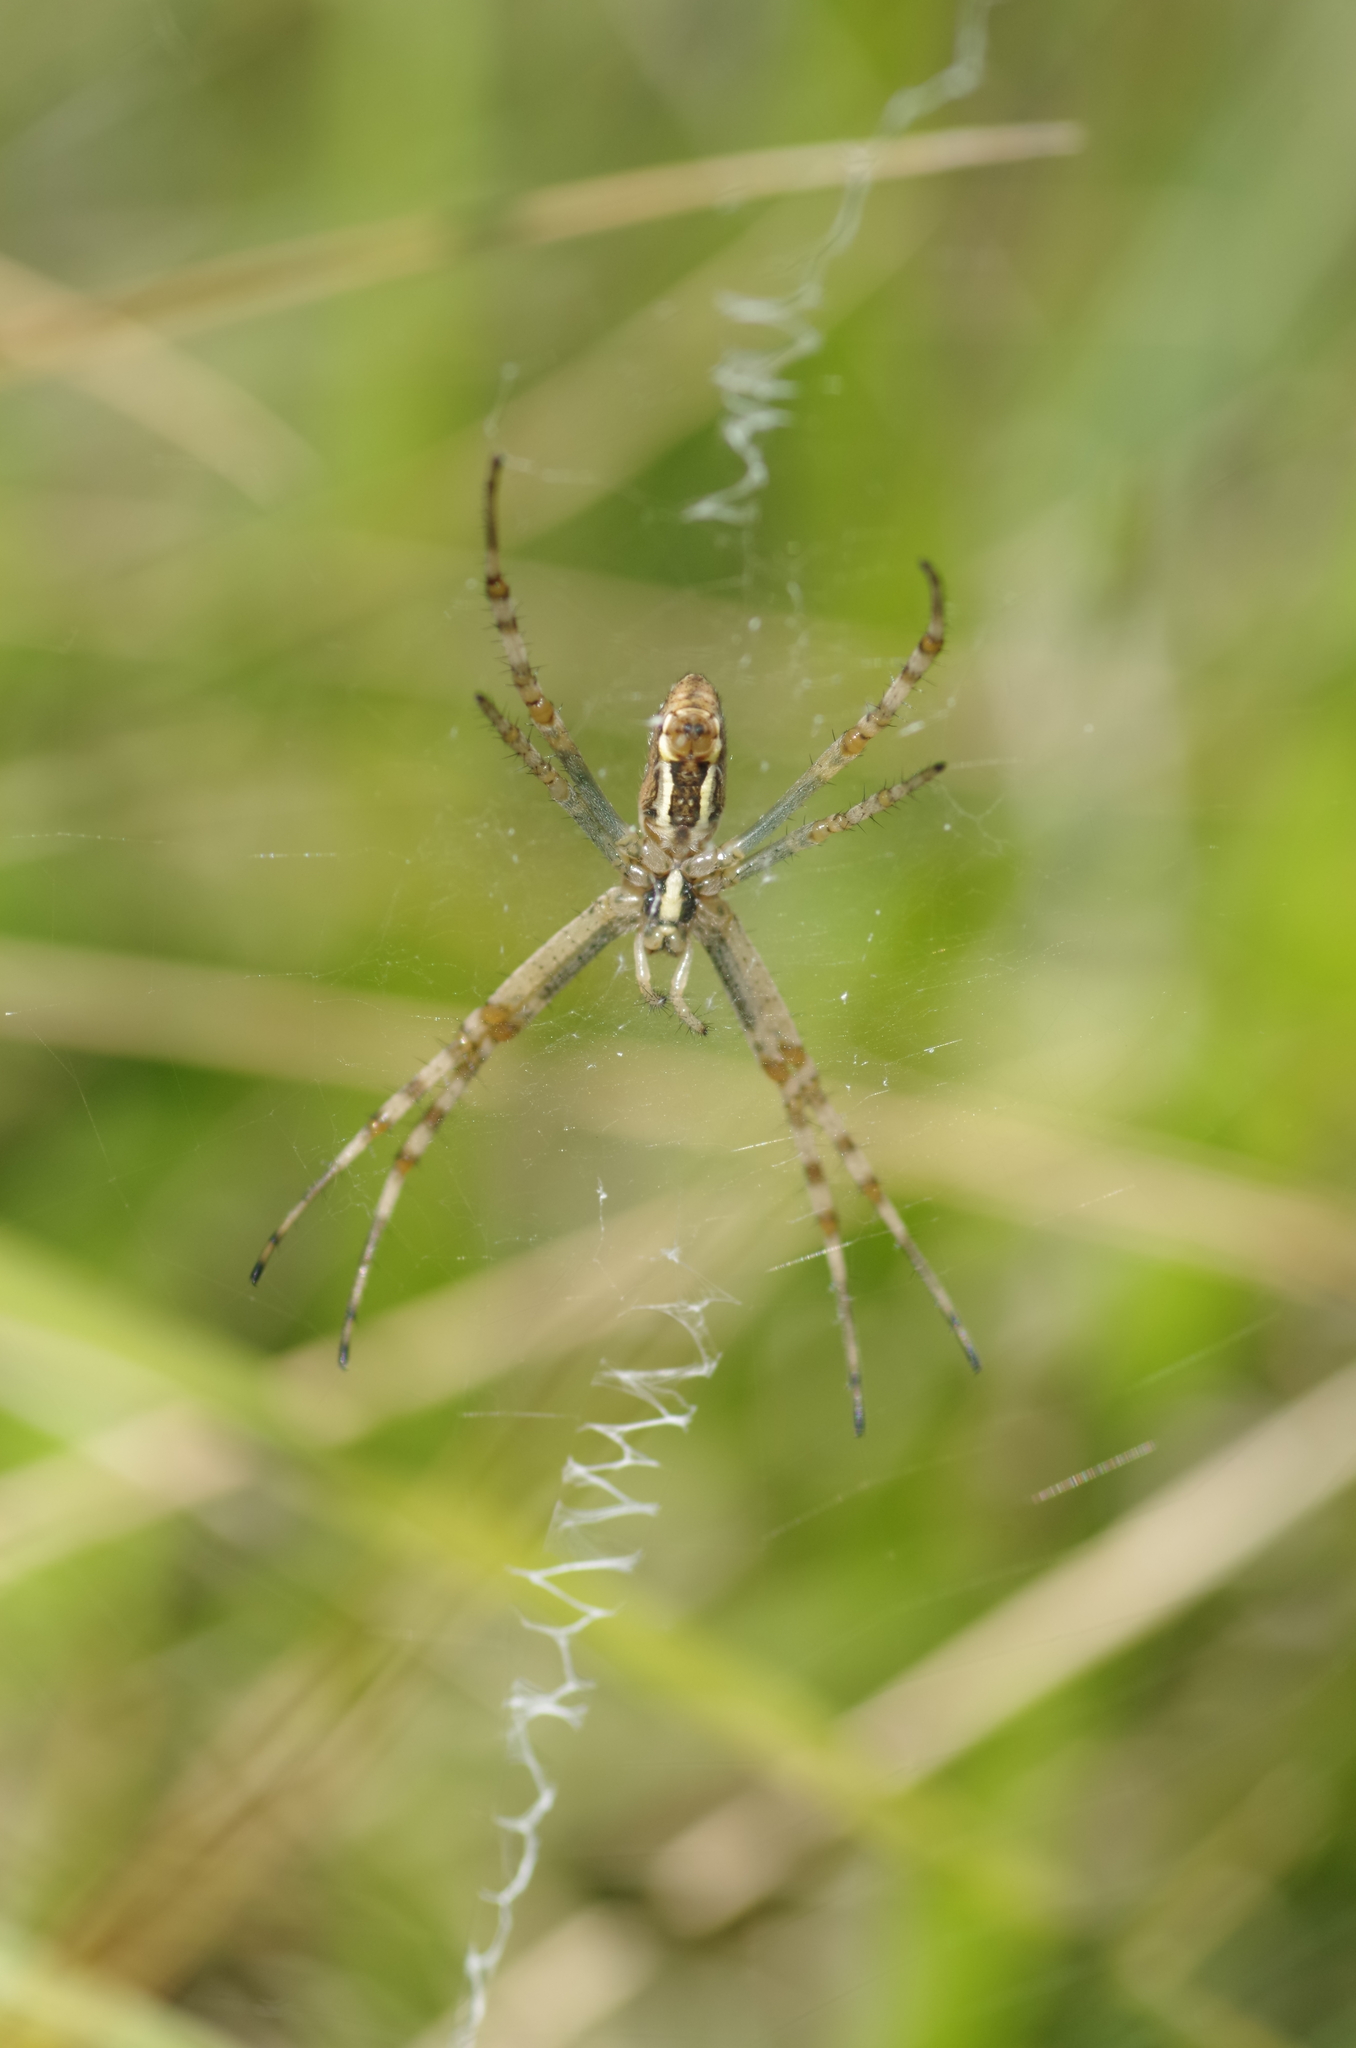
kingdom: Animalia
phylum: Arthropoda
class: Arachnida
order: Araneae
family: Araneidae
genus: Argiope
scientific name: Argiope bruennichi
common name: Wasp spider
